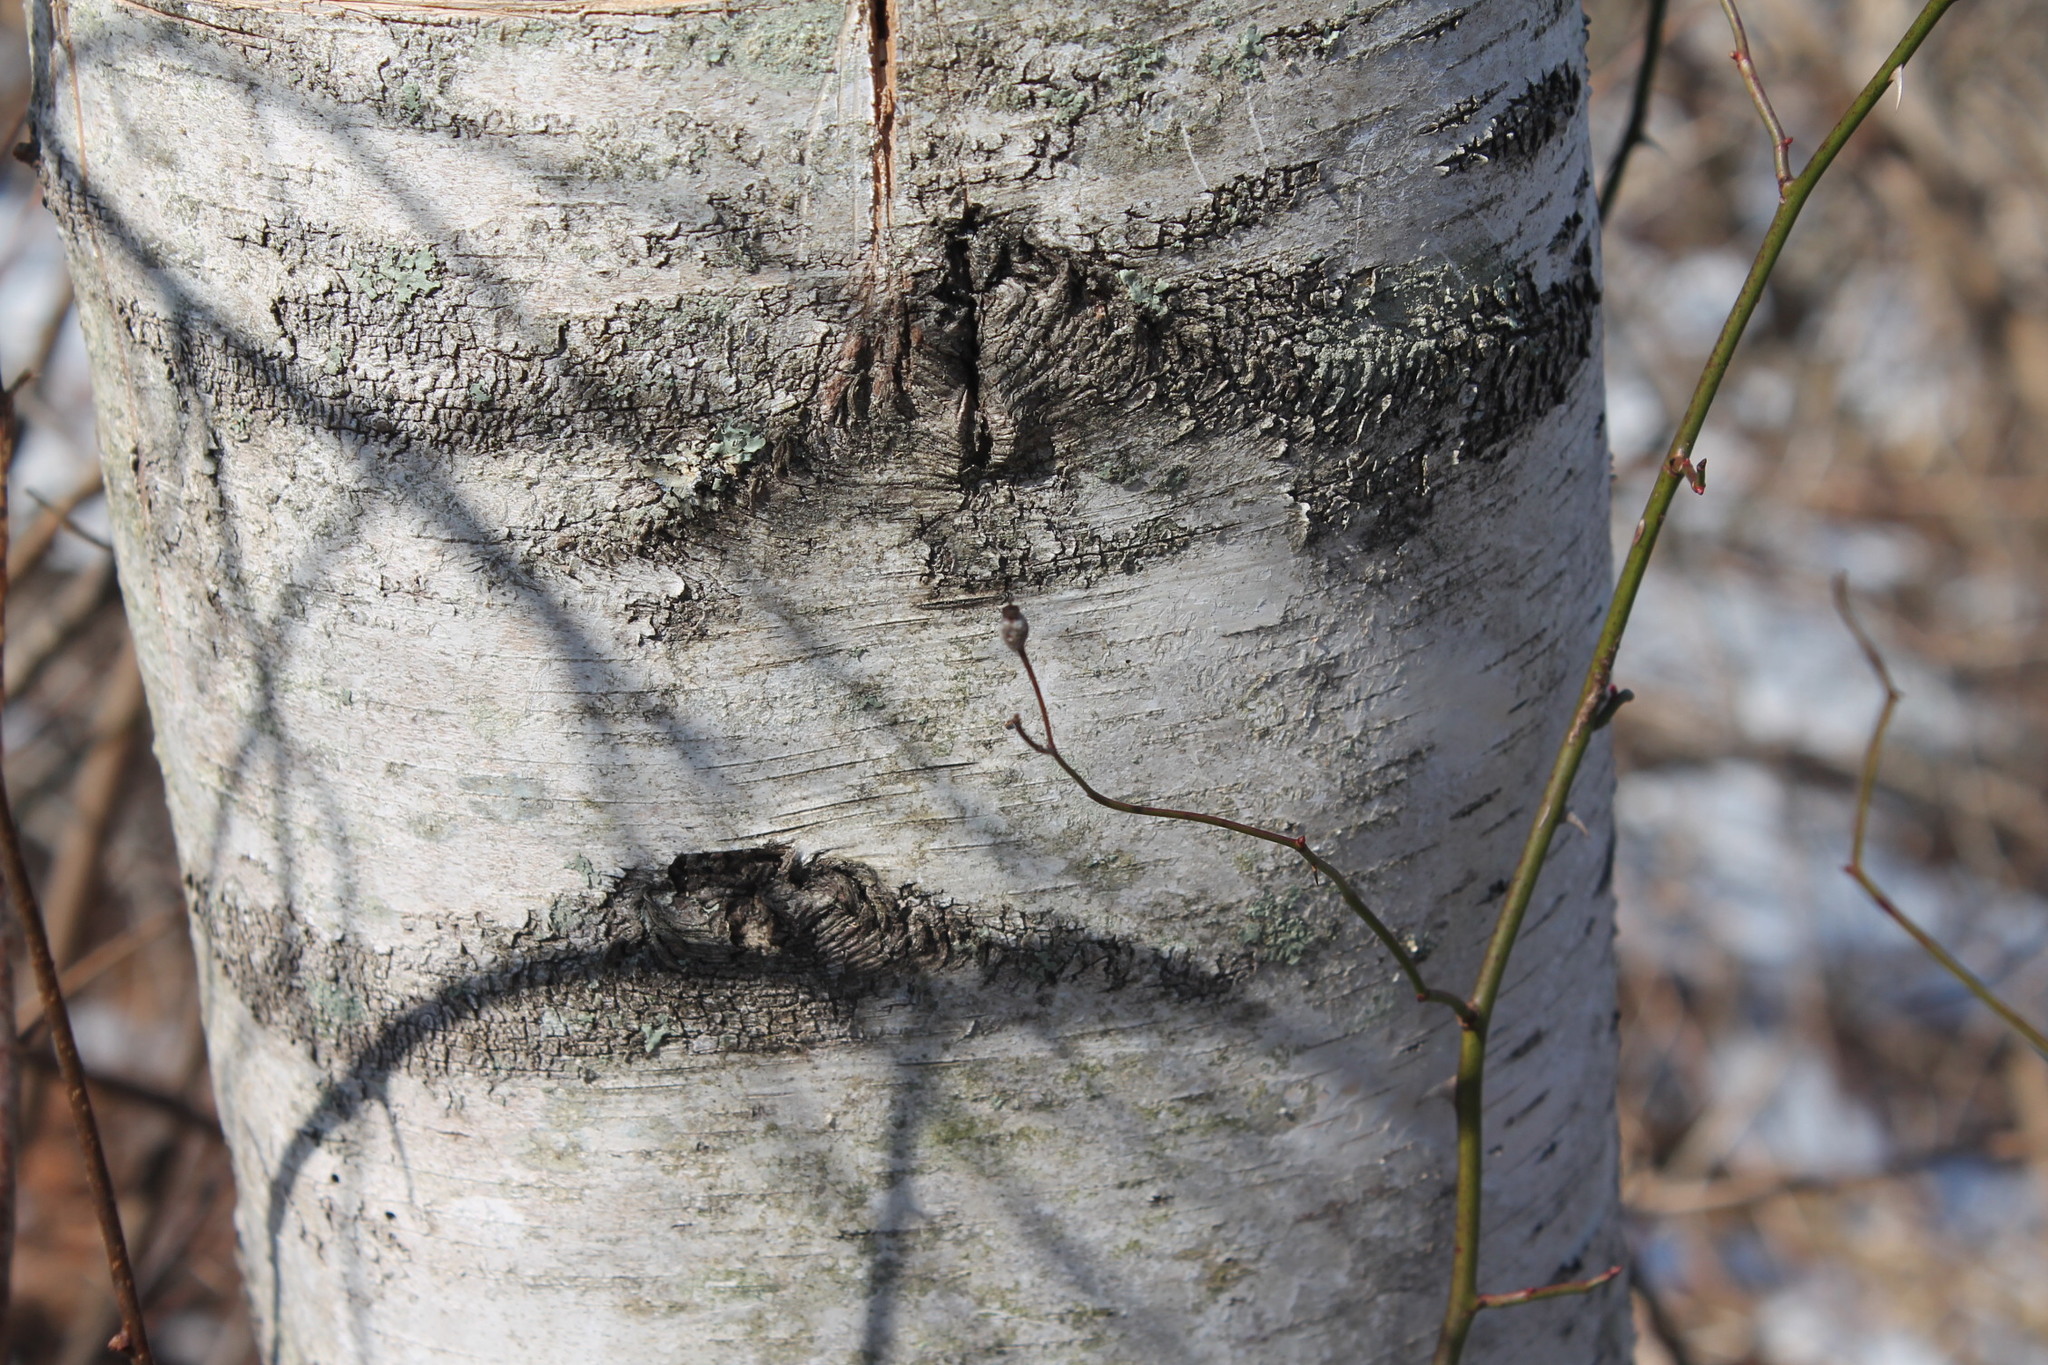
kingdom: Plantae
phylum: Tracheophyta
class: Magnoliopsida
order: Fagales
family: Betulaceae
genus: Betula
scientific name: Betula populifolia
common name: Fire birch
